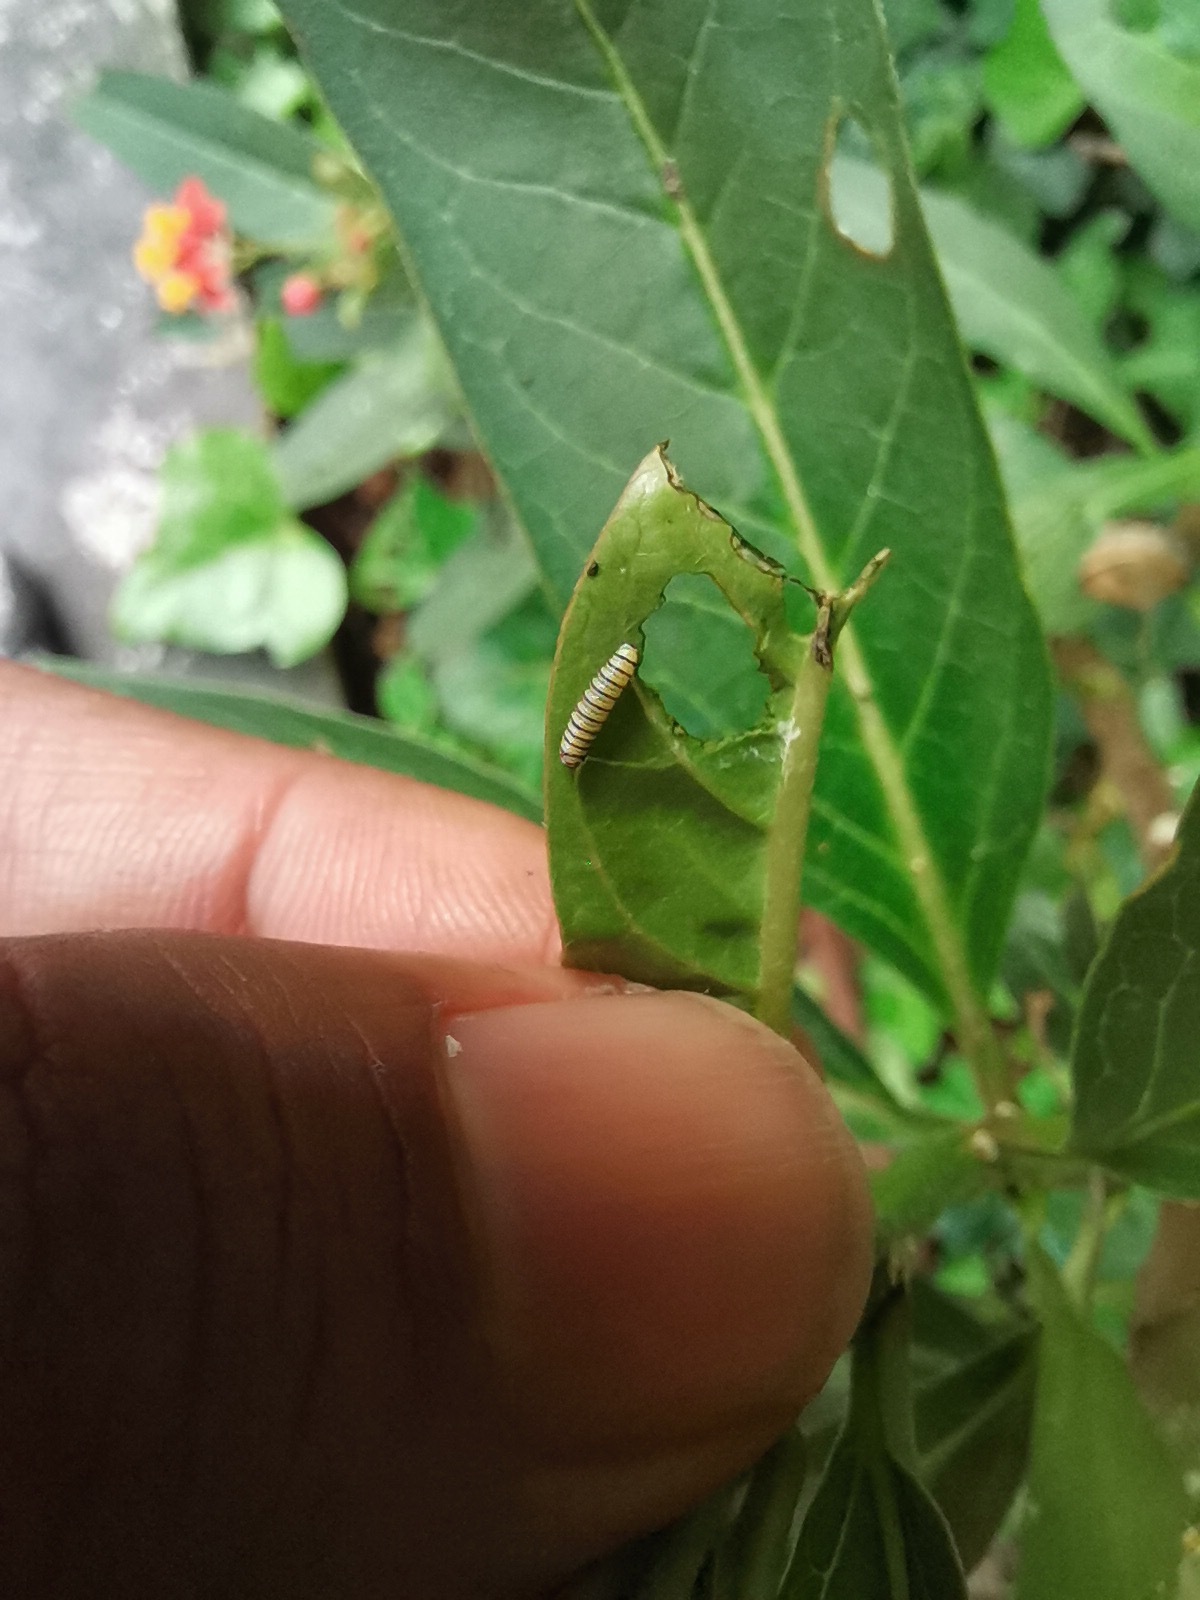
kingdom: Animalia
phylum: Arthropoda
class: Insecta
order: Lepidoptera
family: Nymphalidae
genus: Danaus
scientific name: Danaus plexippus
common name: Monarch
